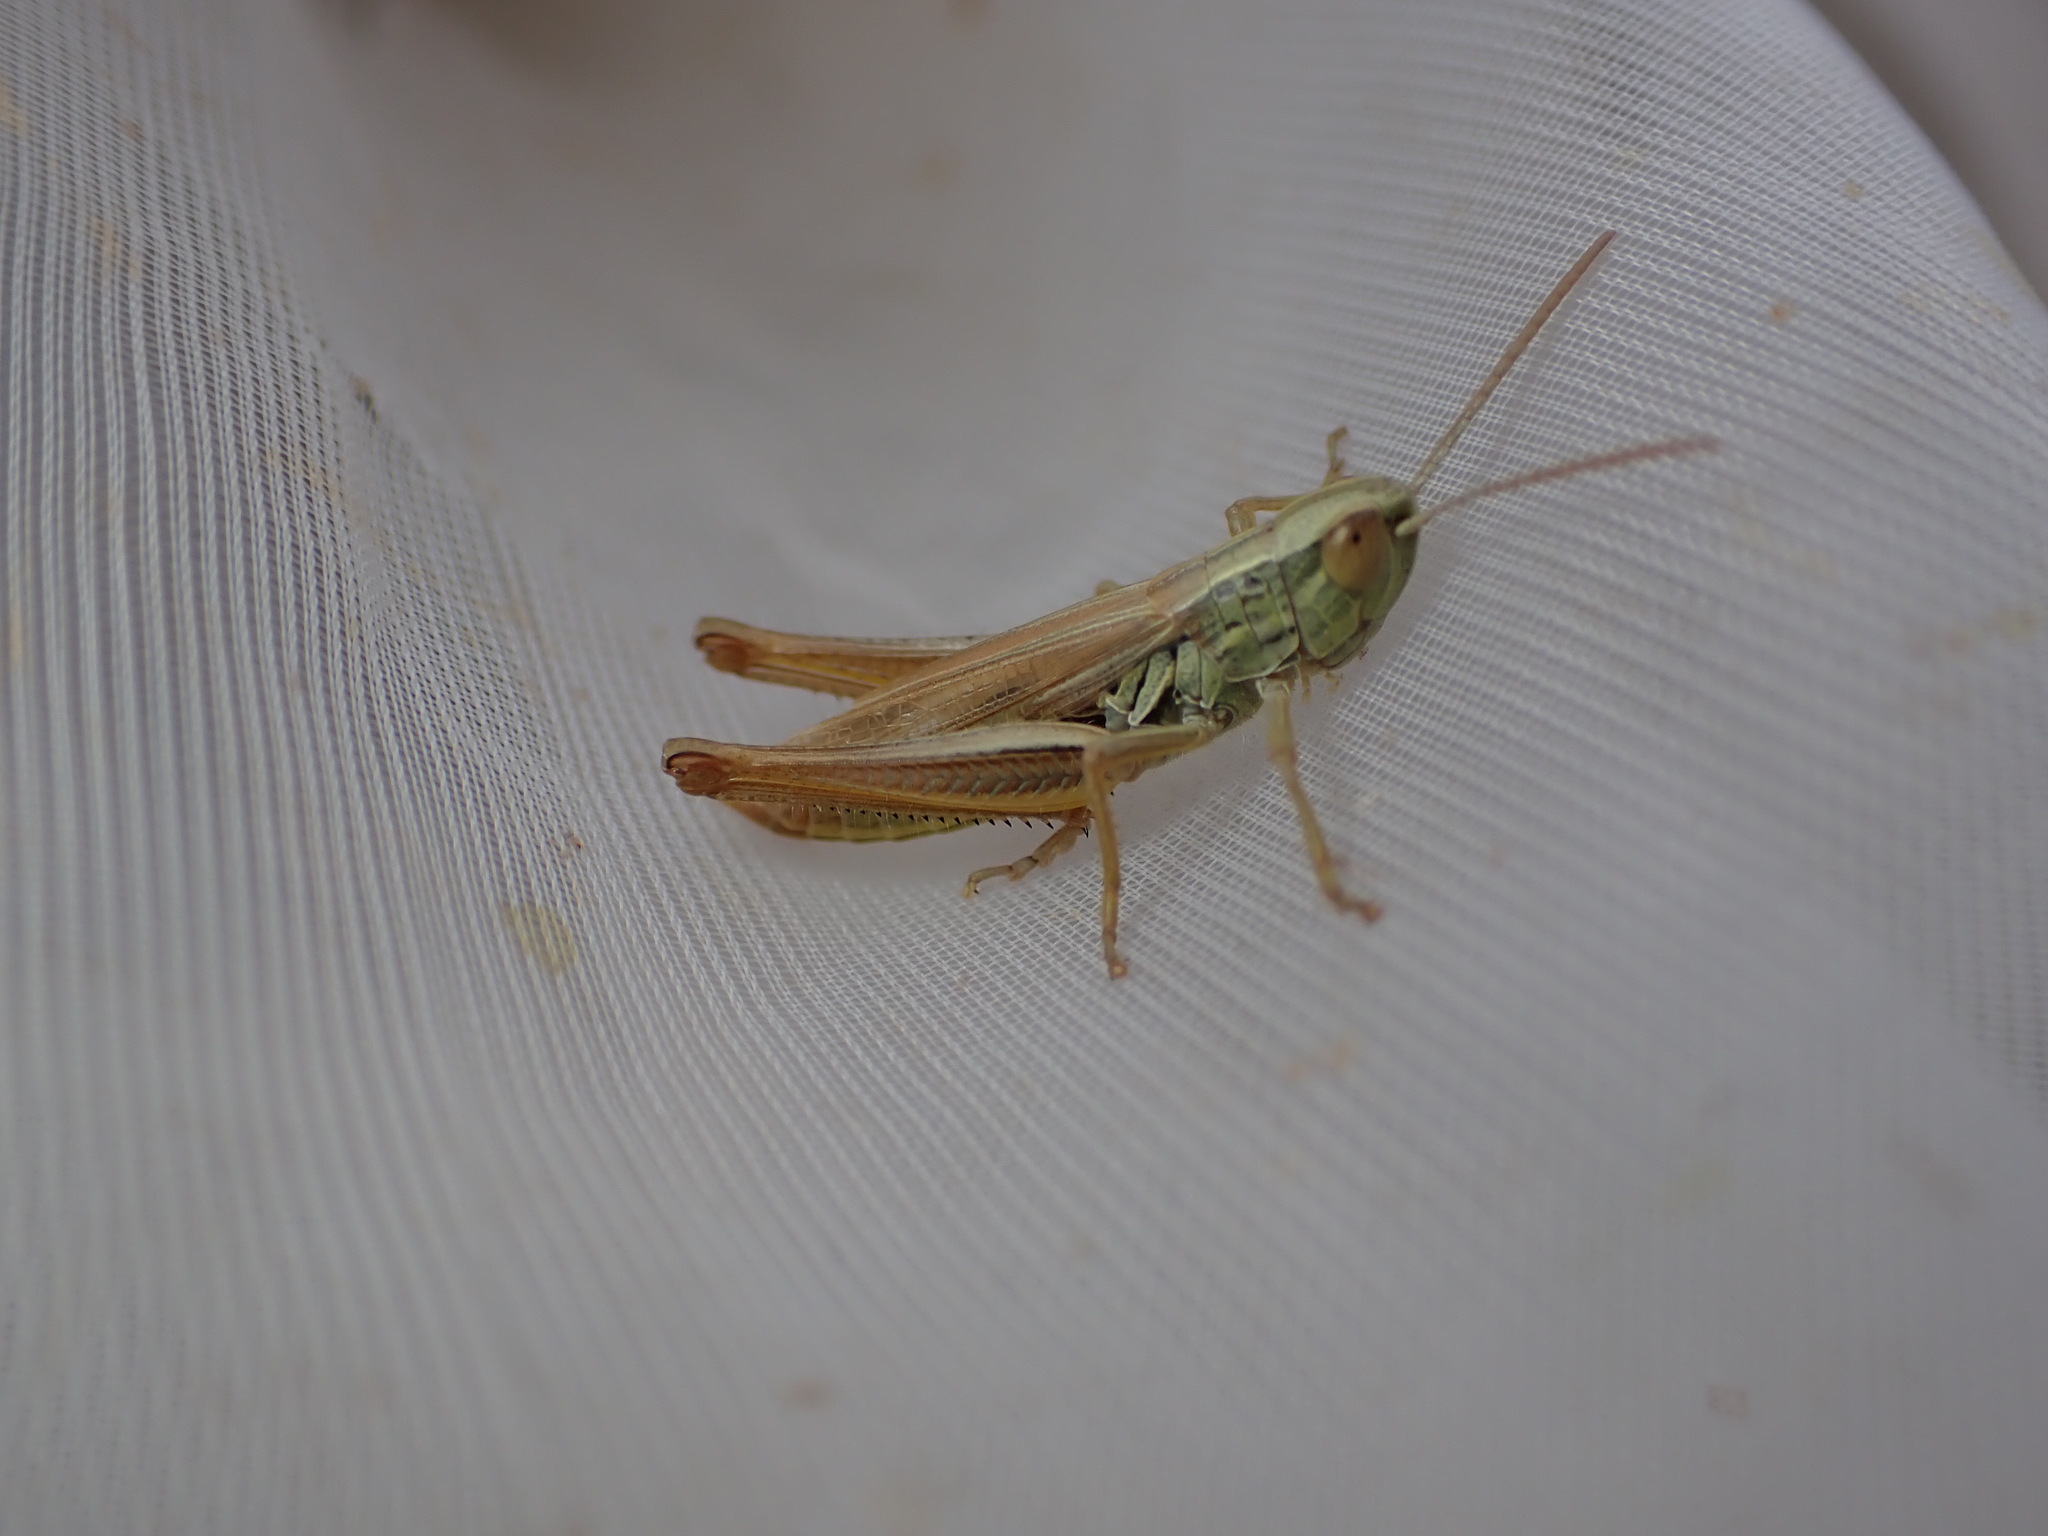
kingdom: Animalia
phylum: Arthropoda
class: Insecta
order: Orthoptera
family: Acrididae
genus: Euchorthippus
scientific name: Euchorthippus declivus
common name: Common straw grasshopper
